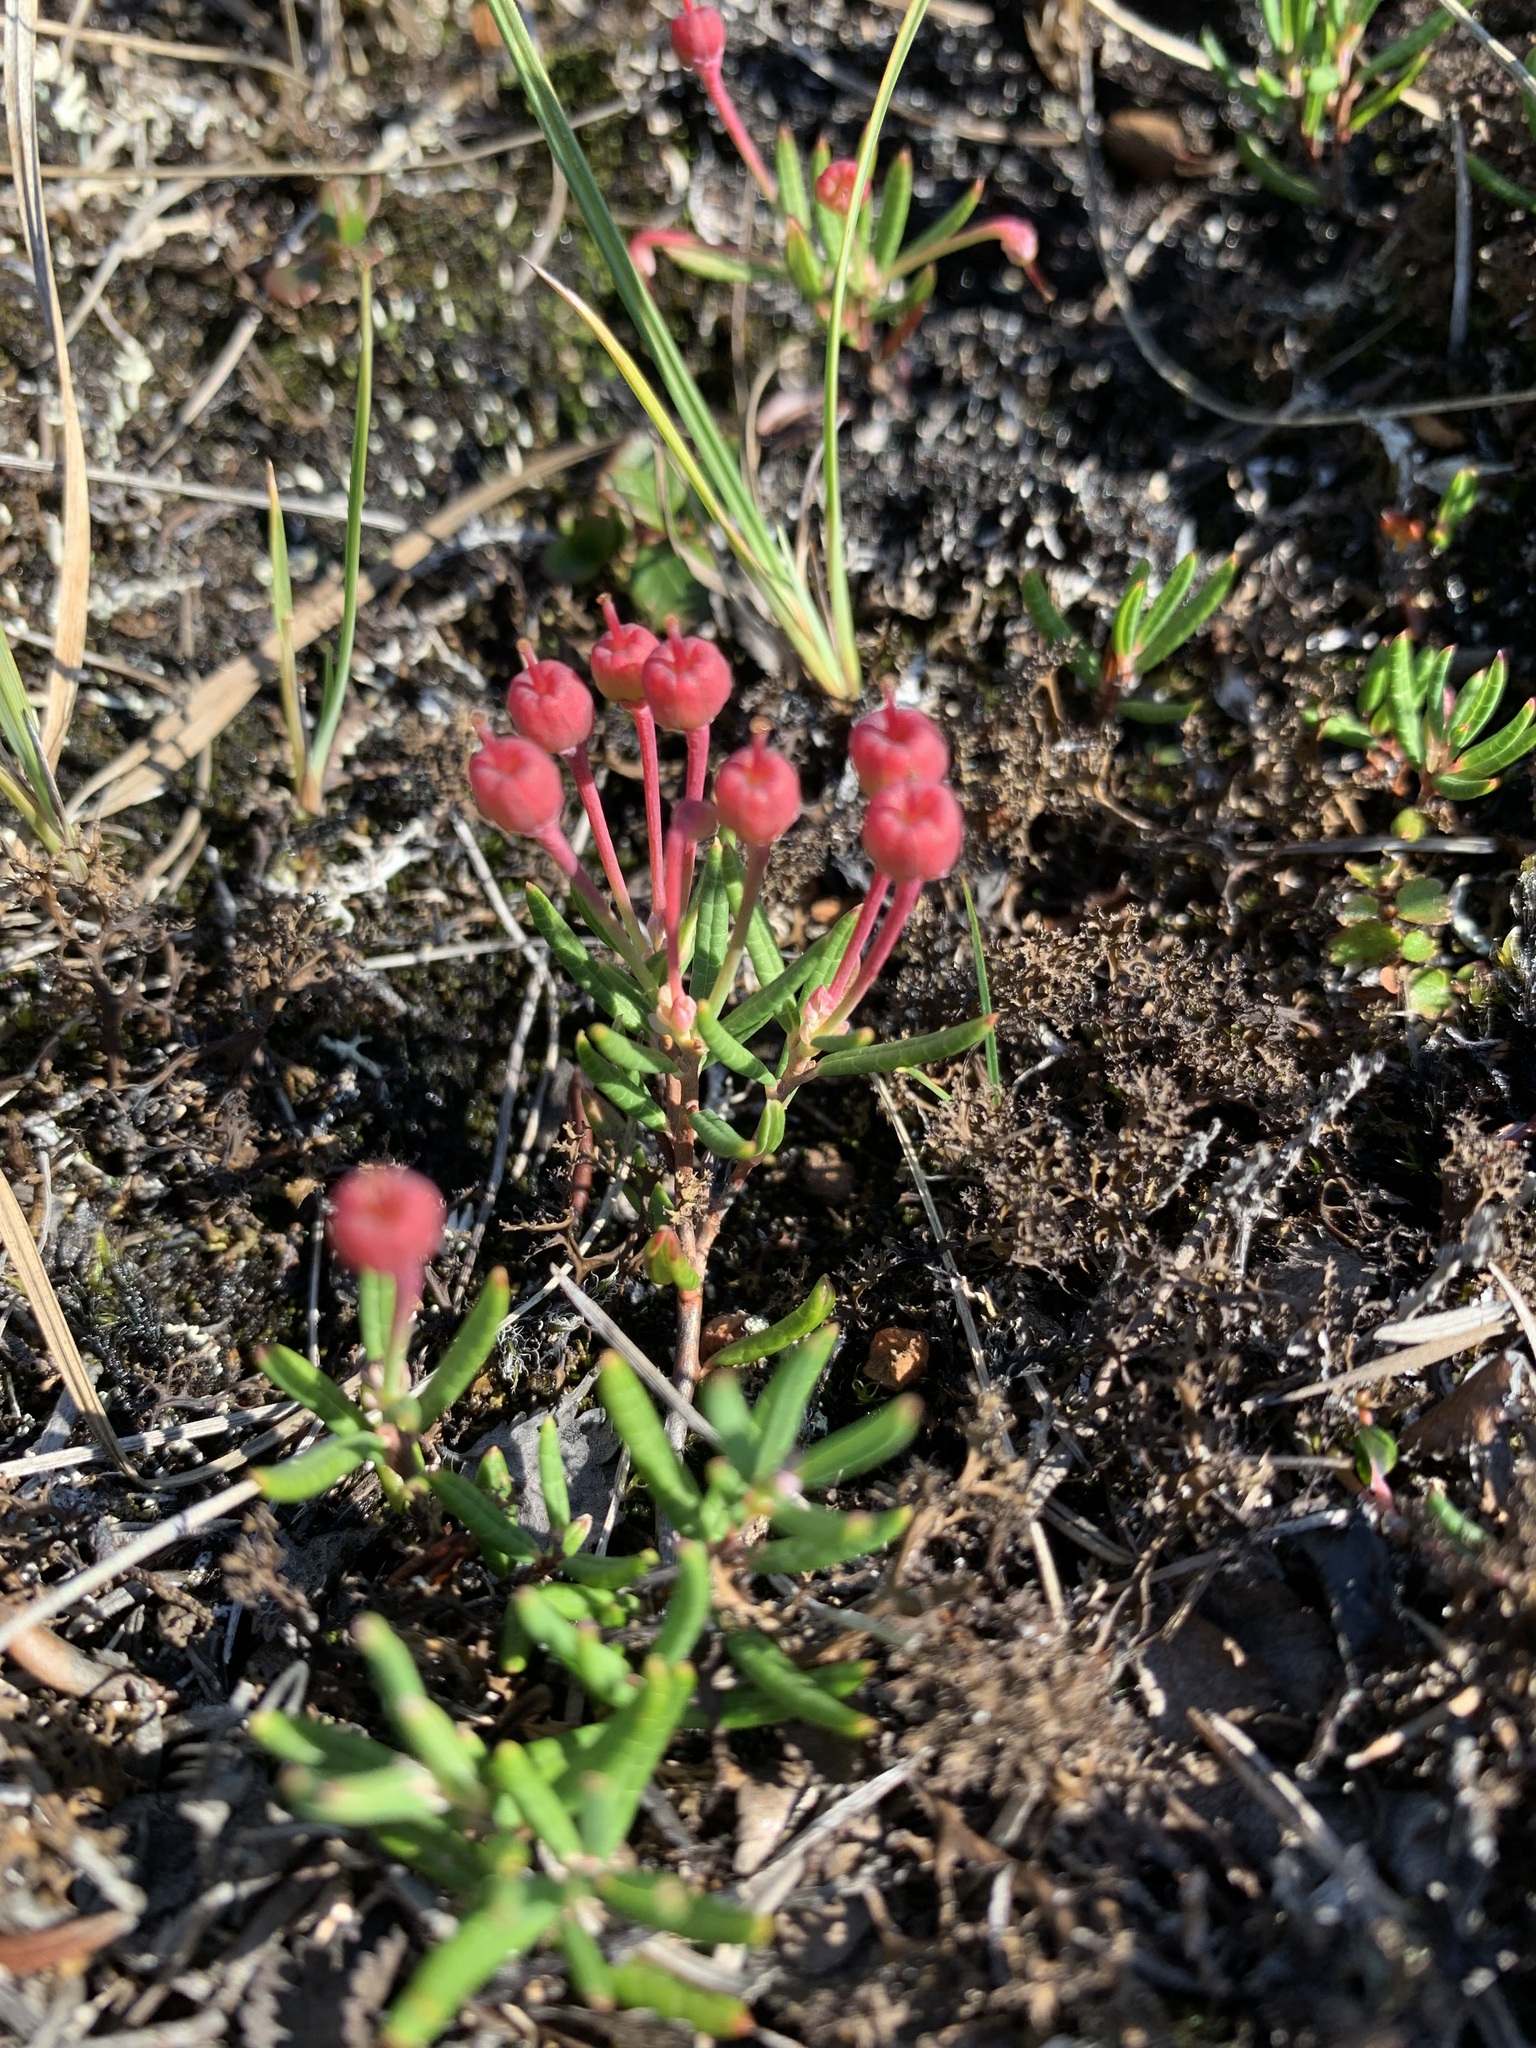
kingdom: Plantae
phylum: Tracheophyta
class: Magnoliopsida
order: Ericales
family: Ericaceae
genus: Andromeda
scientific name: Andromeda polifolia
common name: Bog-rosemary
